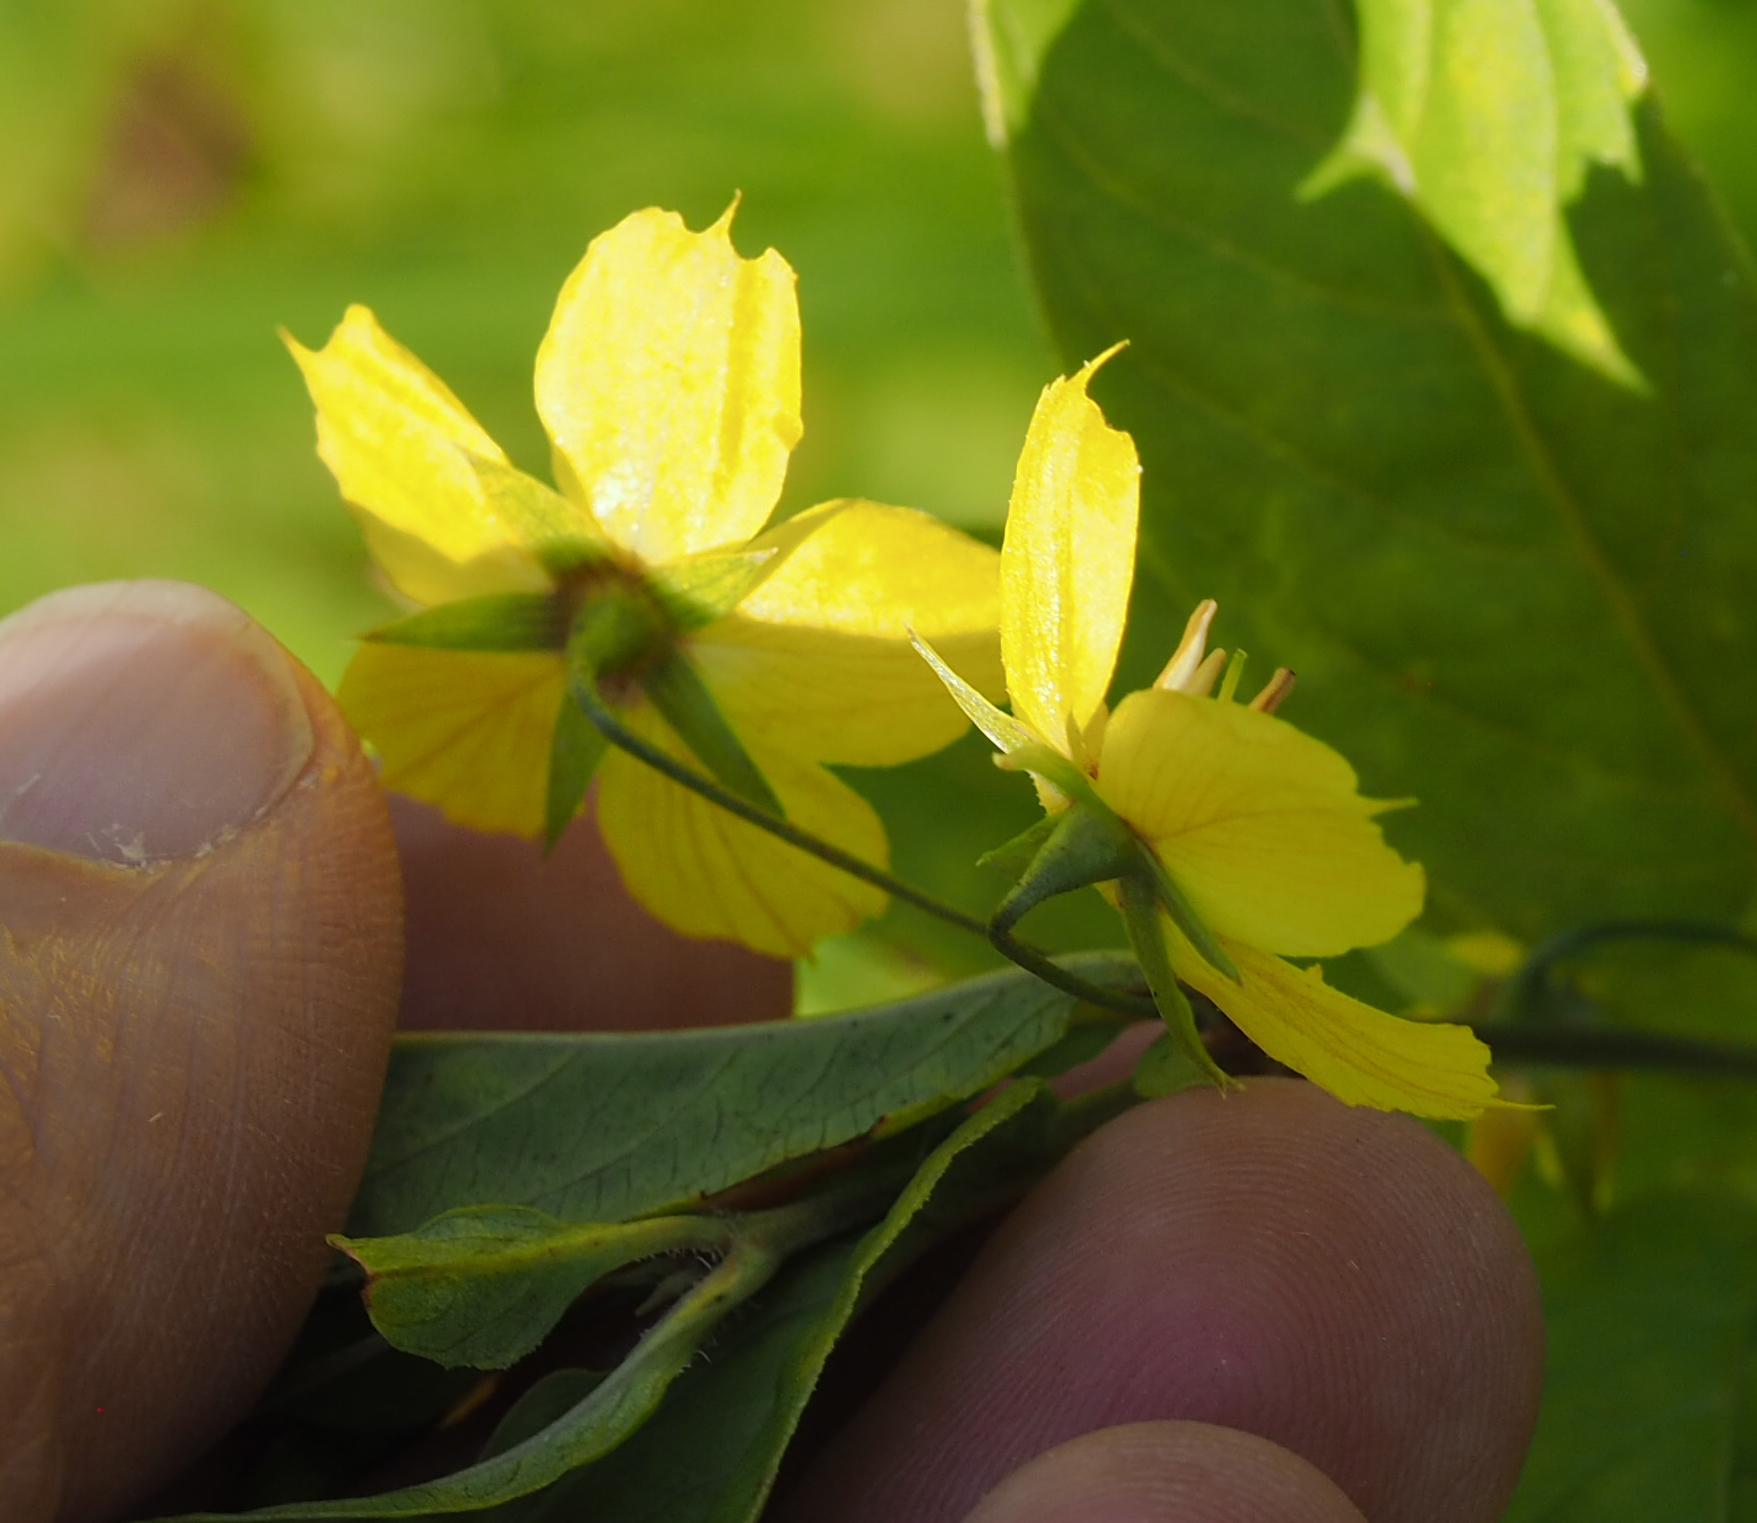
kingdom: Plantae
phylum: Tracheophyta
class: Magnoliopsida
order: Ericales
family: Primulaceae
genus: Lysimachia
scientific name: Lysimachia ciliata
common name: Fringed loosestrife
